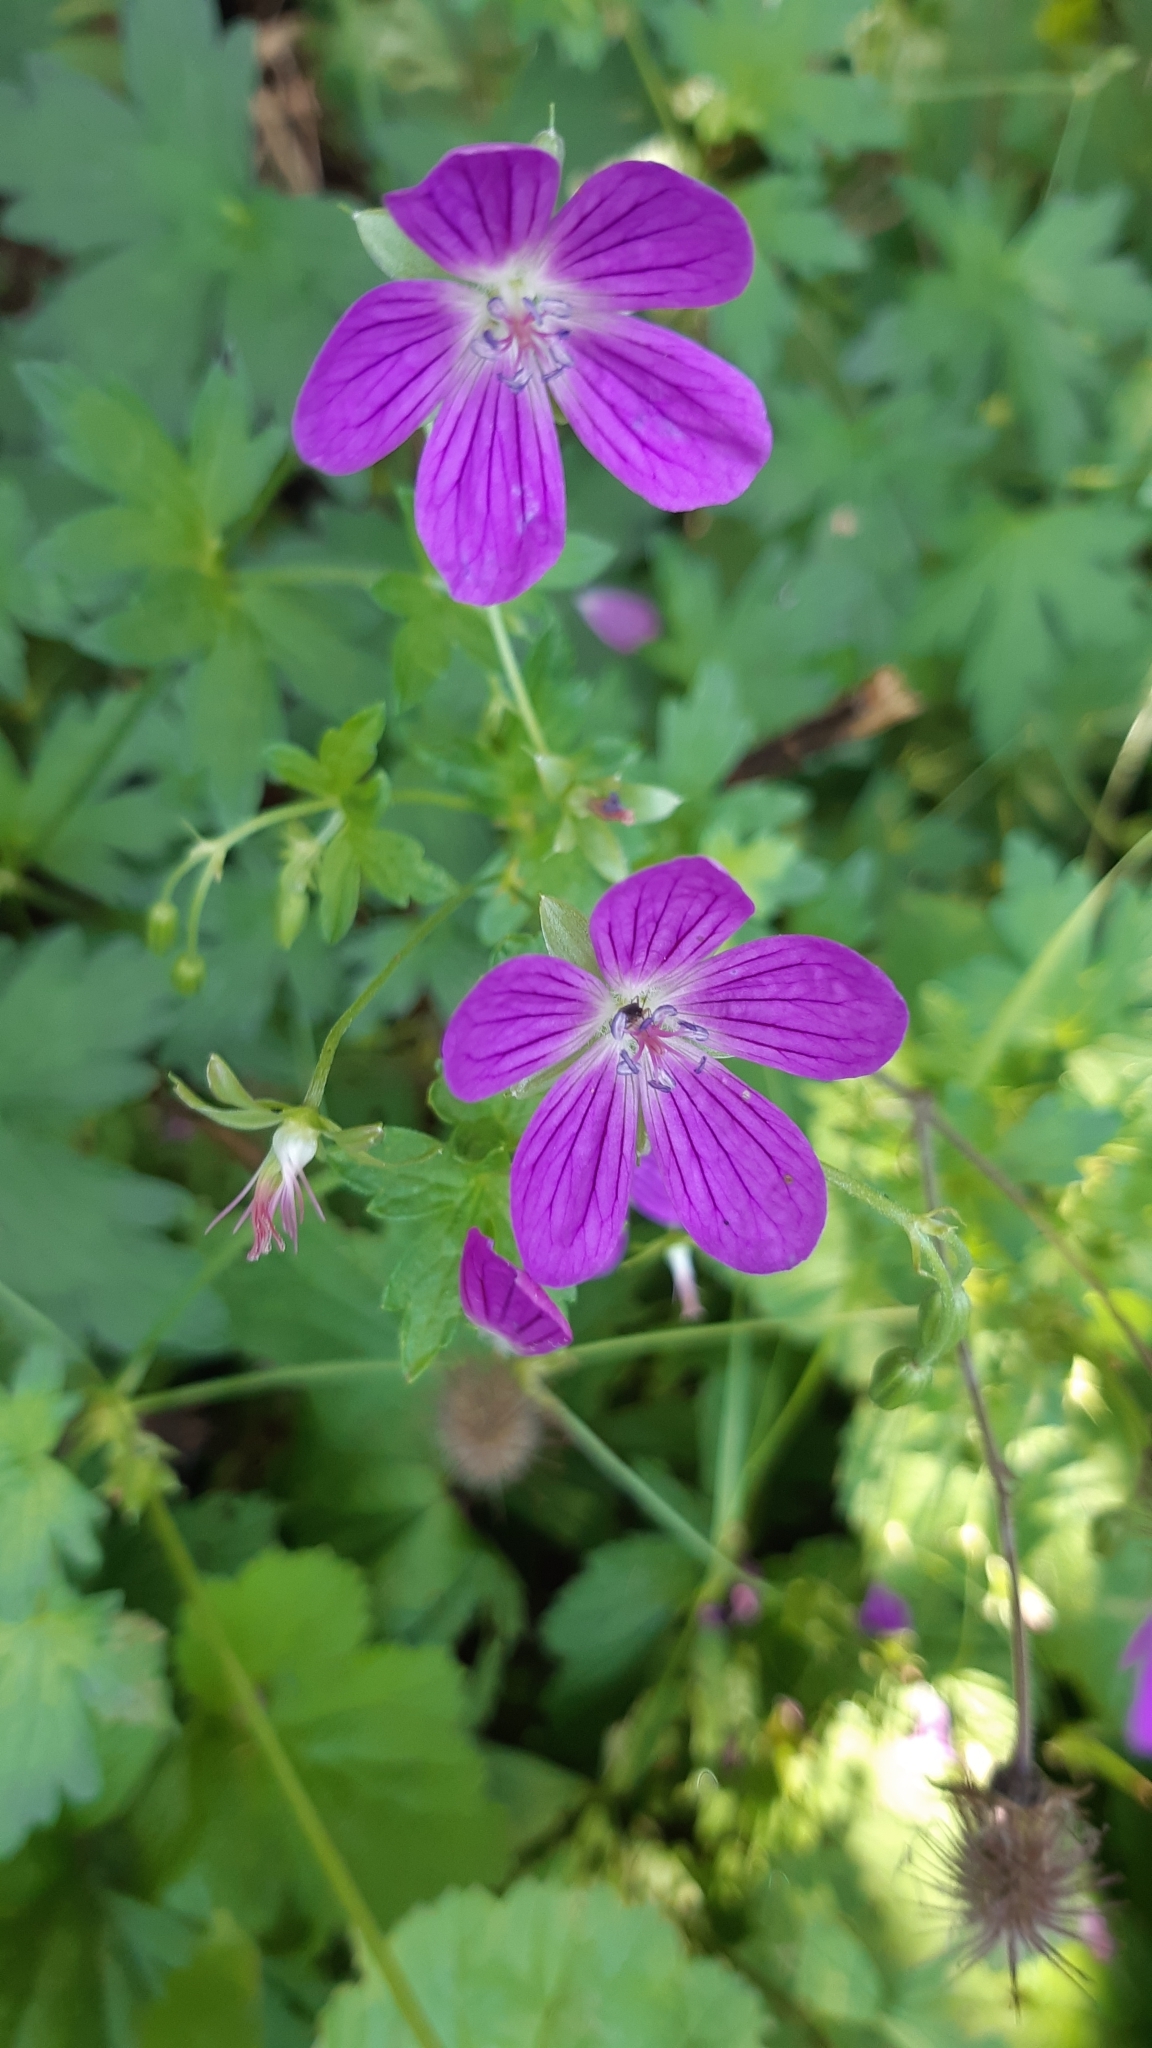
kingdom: Plantae
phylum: Tracheophyta
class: Magnoliopsida
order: Geraniales
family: Geraniaceae
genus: Geranium
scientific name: Geranium palustre
